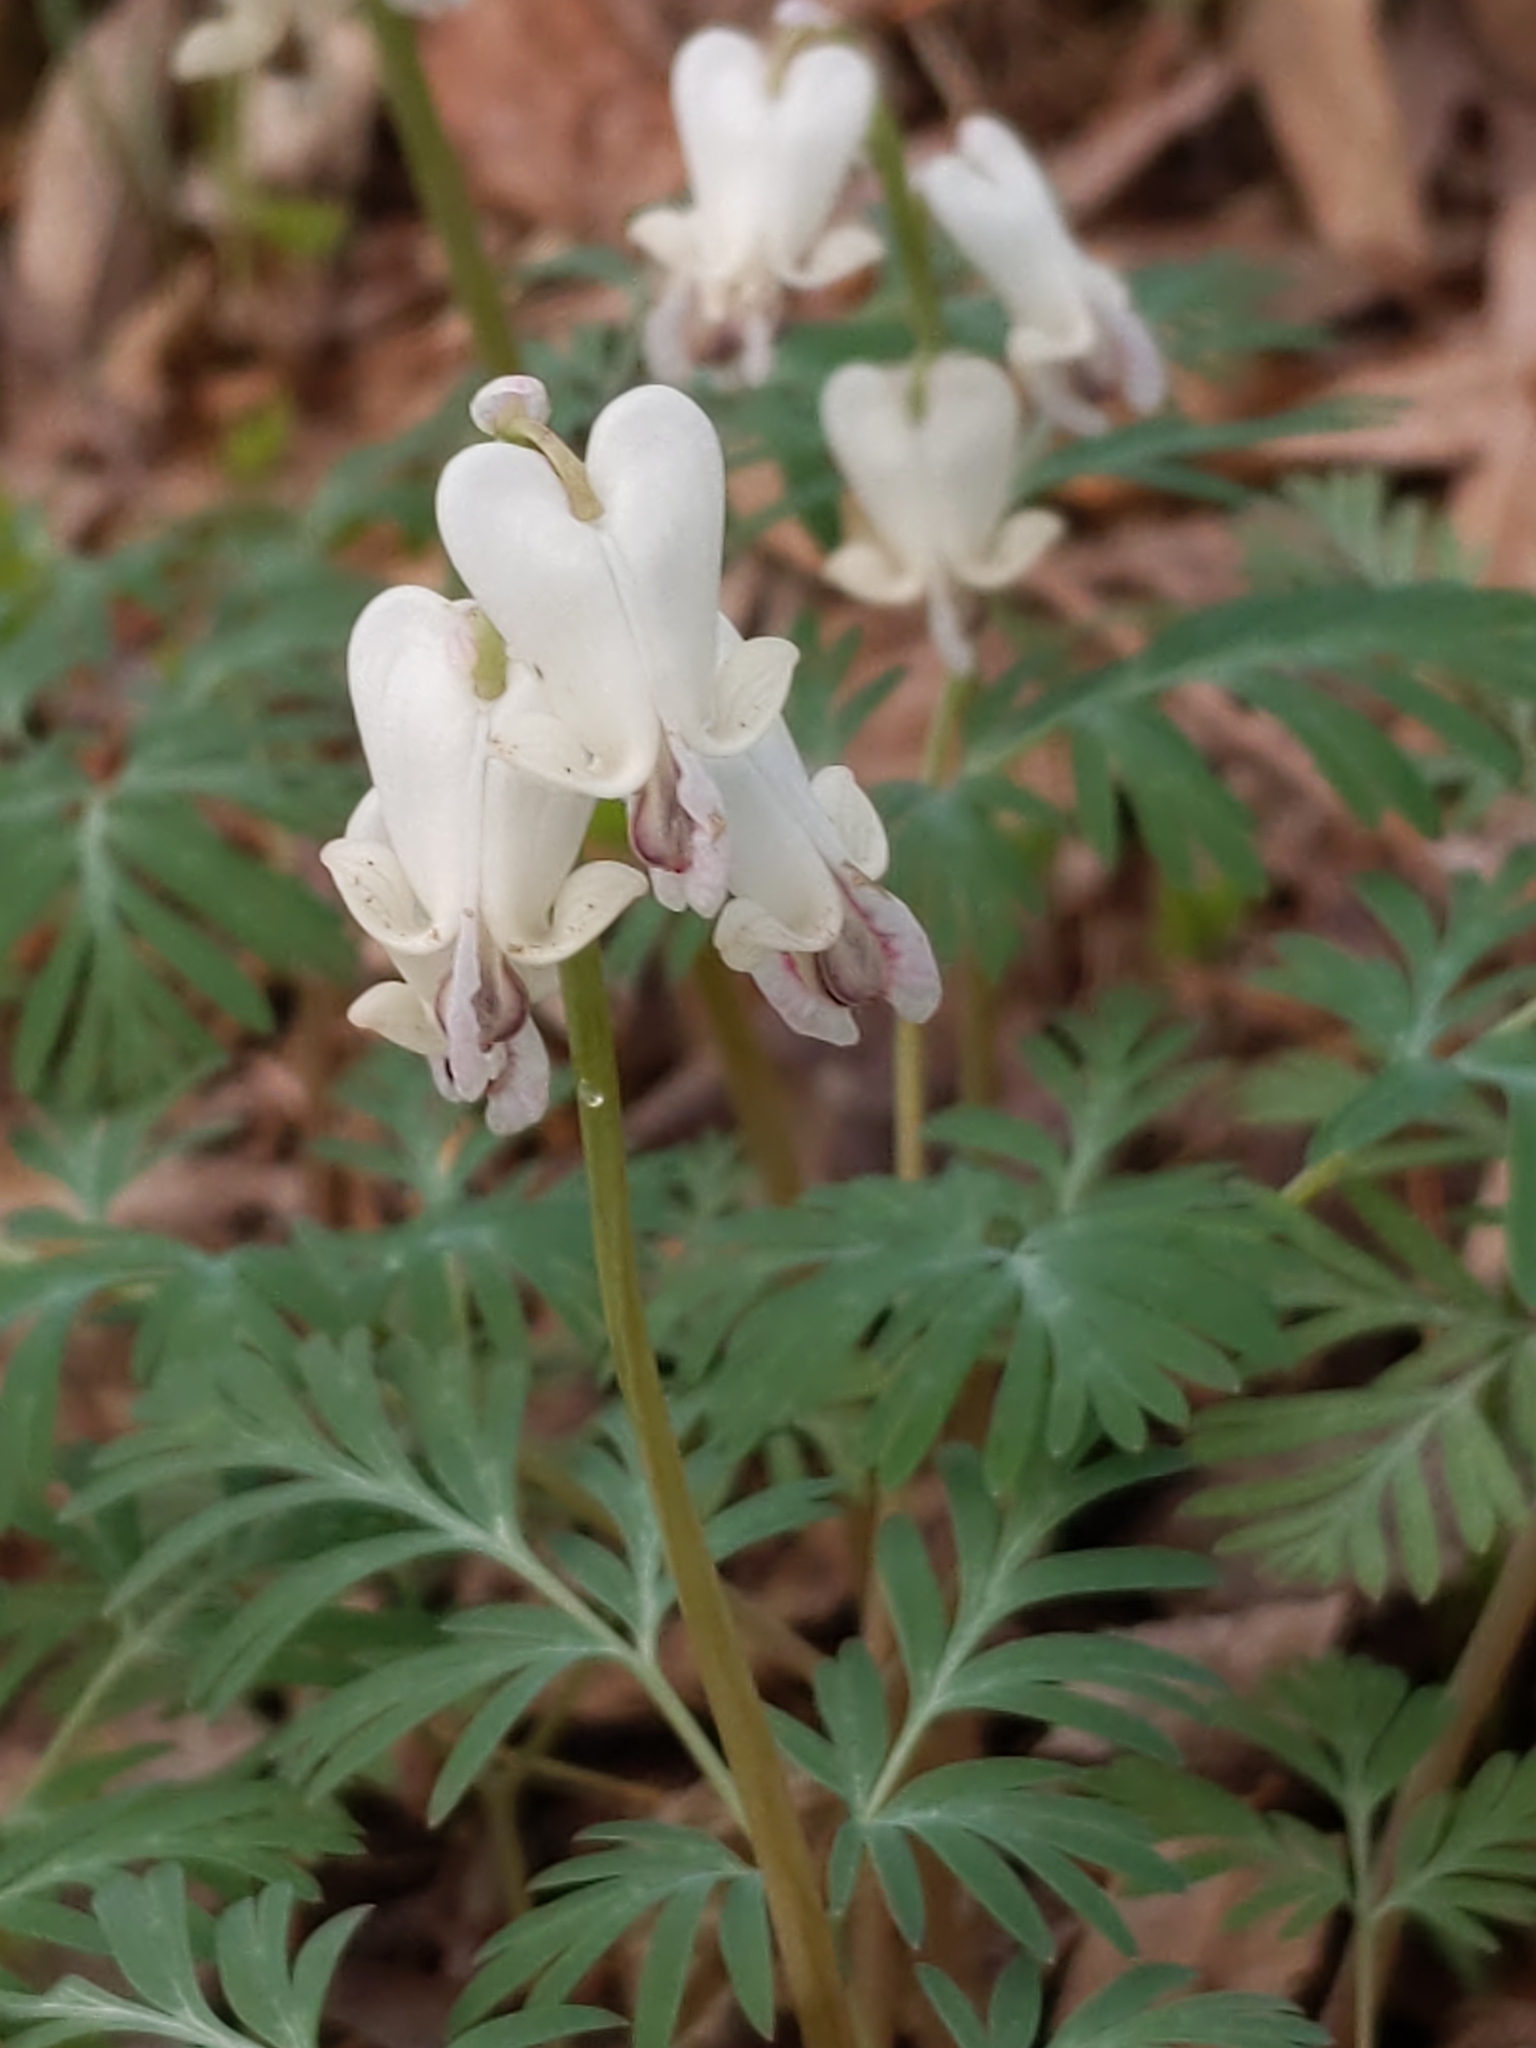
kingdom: Plantae
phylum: Tracheophyta
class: Magnoliopsida
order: Ranunculales
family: Papaveraceae
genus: Dicentra
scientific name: Dicentra canadensis
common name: Squirrel-corn
